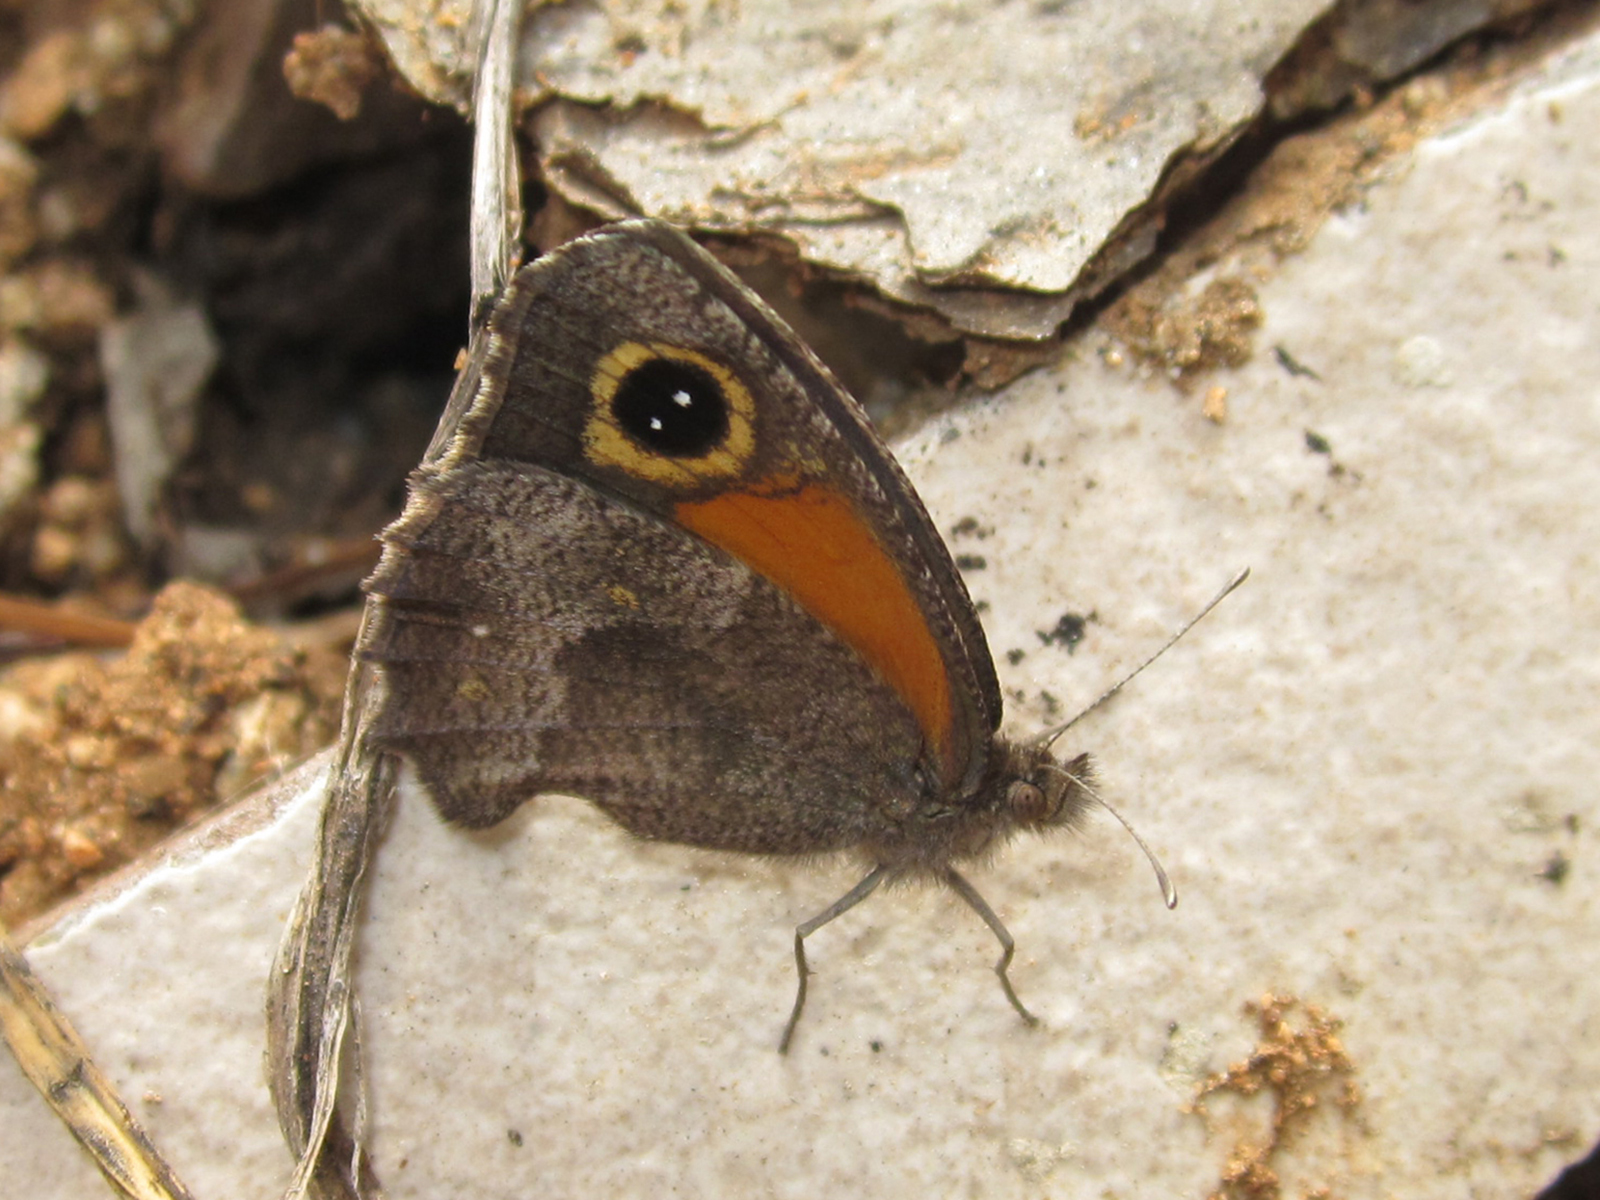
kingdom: Animalia
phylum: Arthropoda
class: Insecta
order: Lepidoptera
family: Nymphalidae
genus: Auca
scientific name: Auca barrosi
